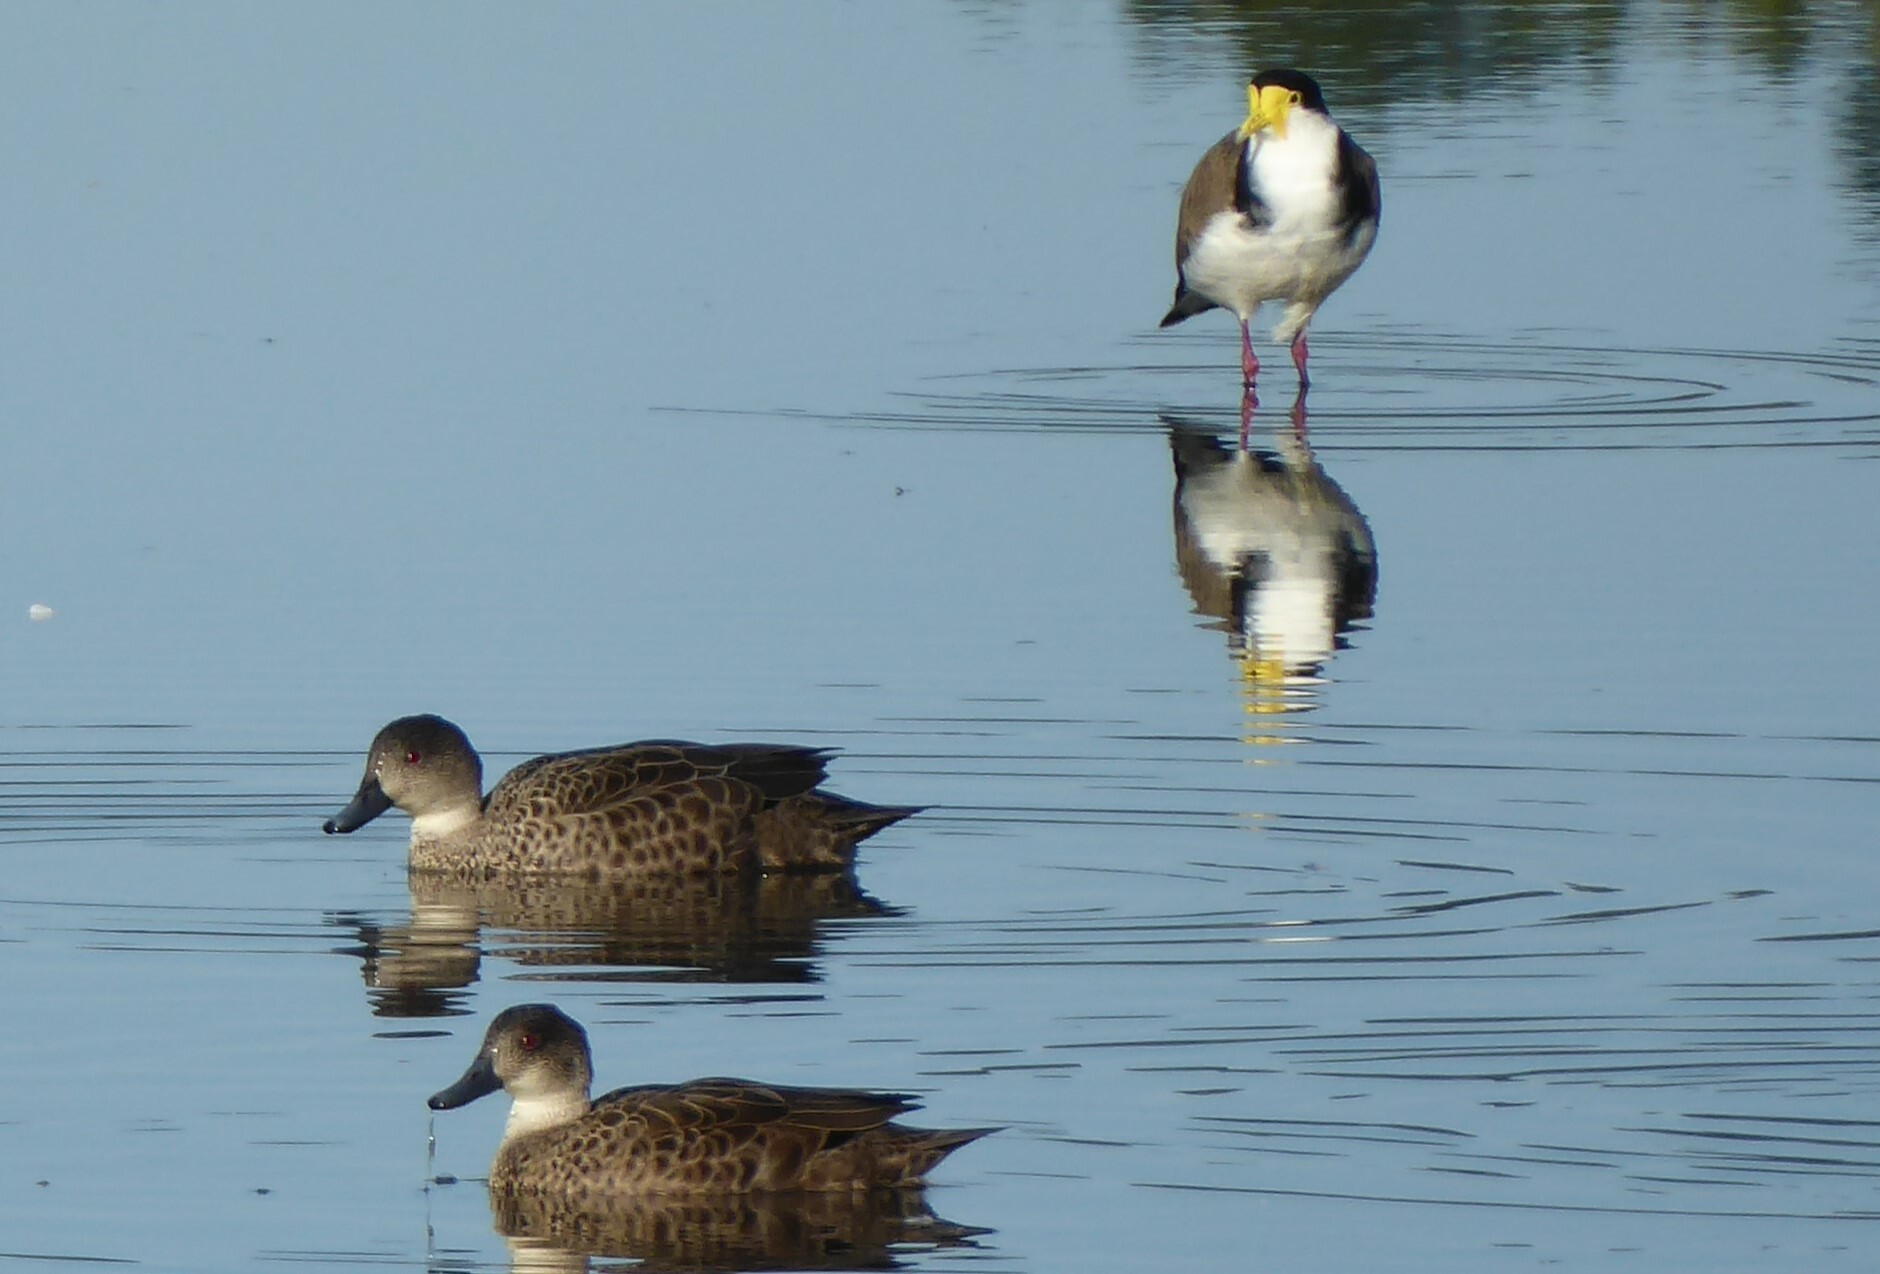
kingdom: Animalia
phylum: Chordata
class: Aves
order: Charadriiformes
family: Charadriidae
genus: Vanellus
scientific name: Vanellus miles
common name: Masked lapwing
